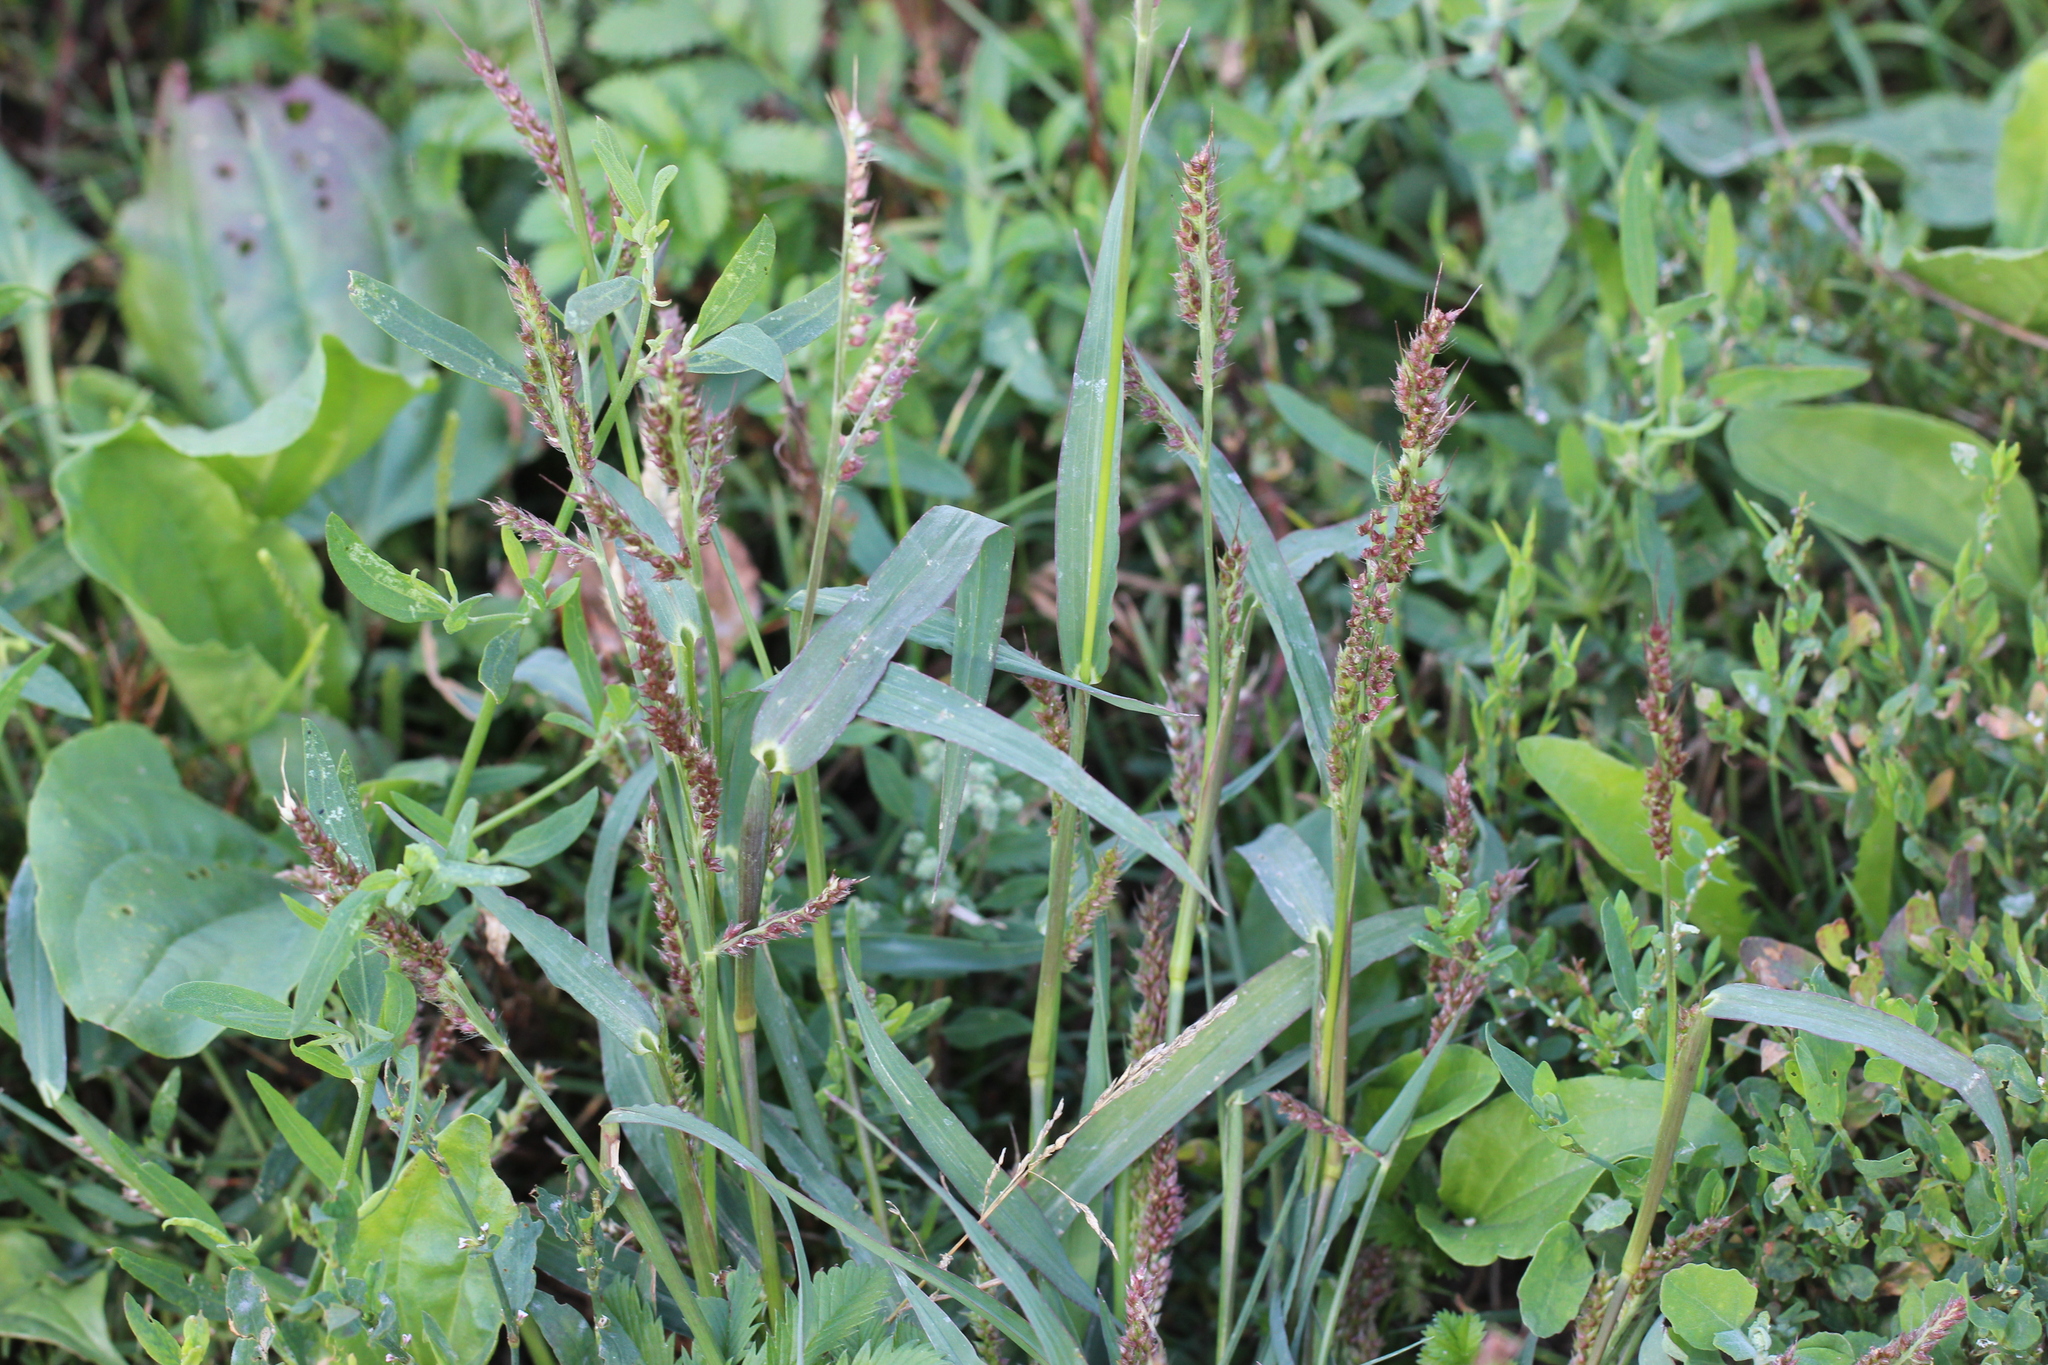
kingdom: Plantae
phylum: Tracheophyta
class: Liliopsida
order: Poales
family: Poaceae
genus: Echinochloa
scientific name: Echinochloa crus-galli
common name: Cockspur
